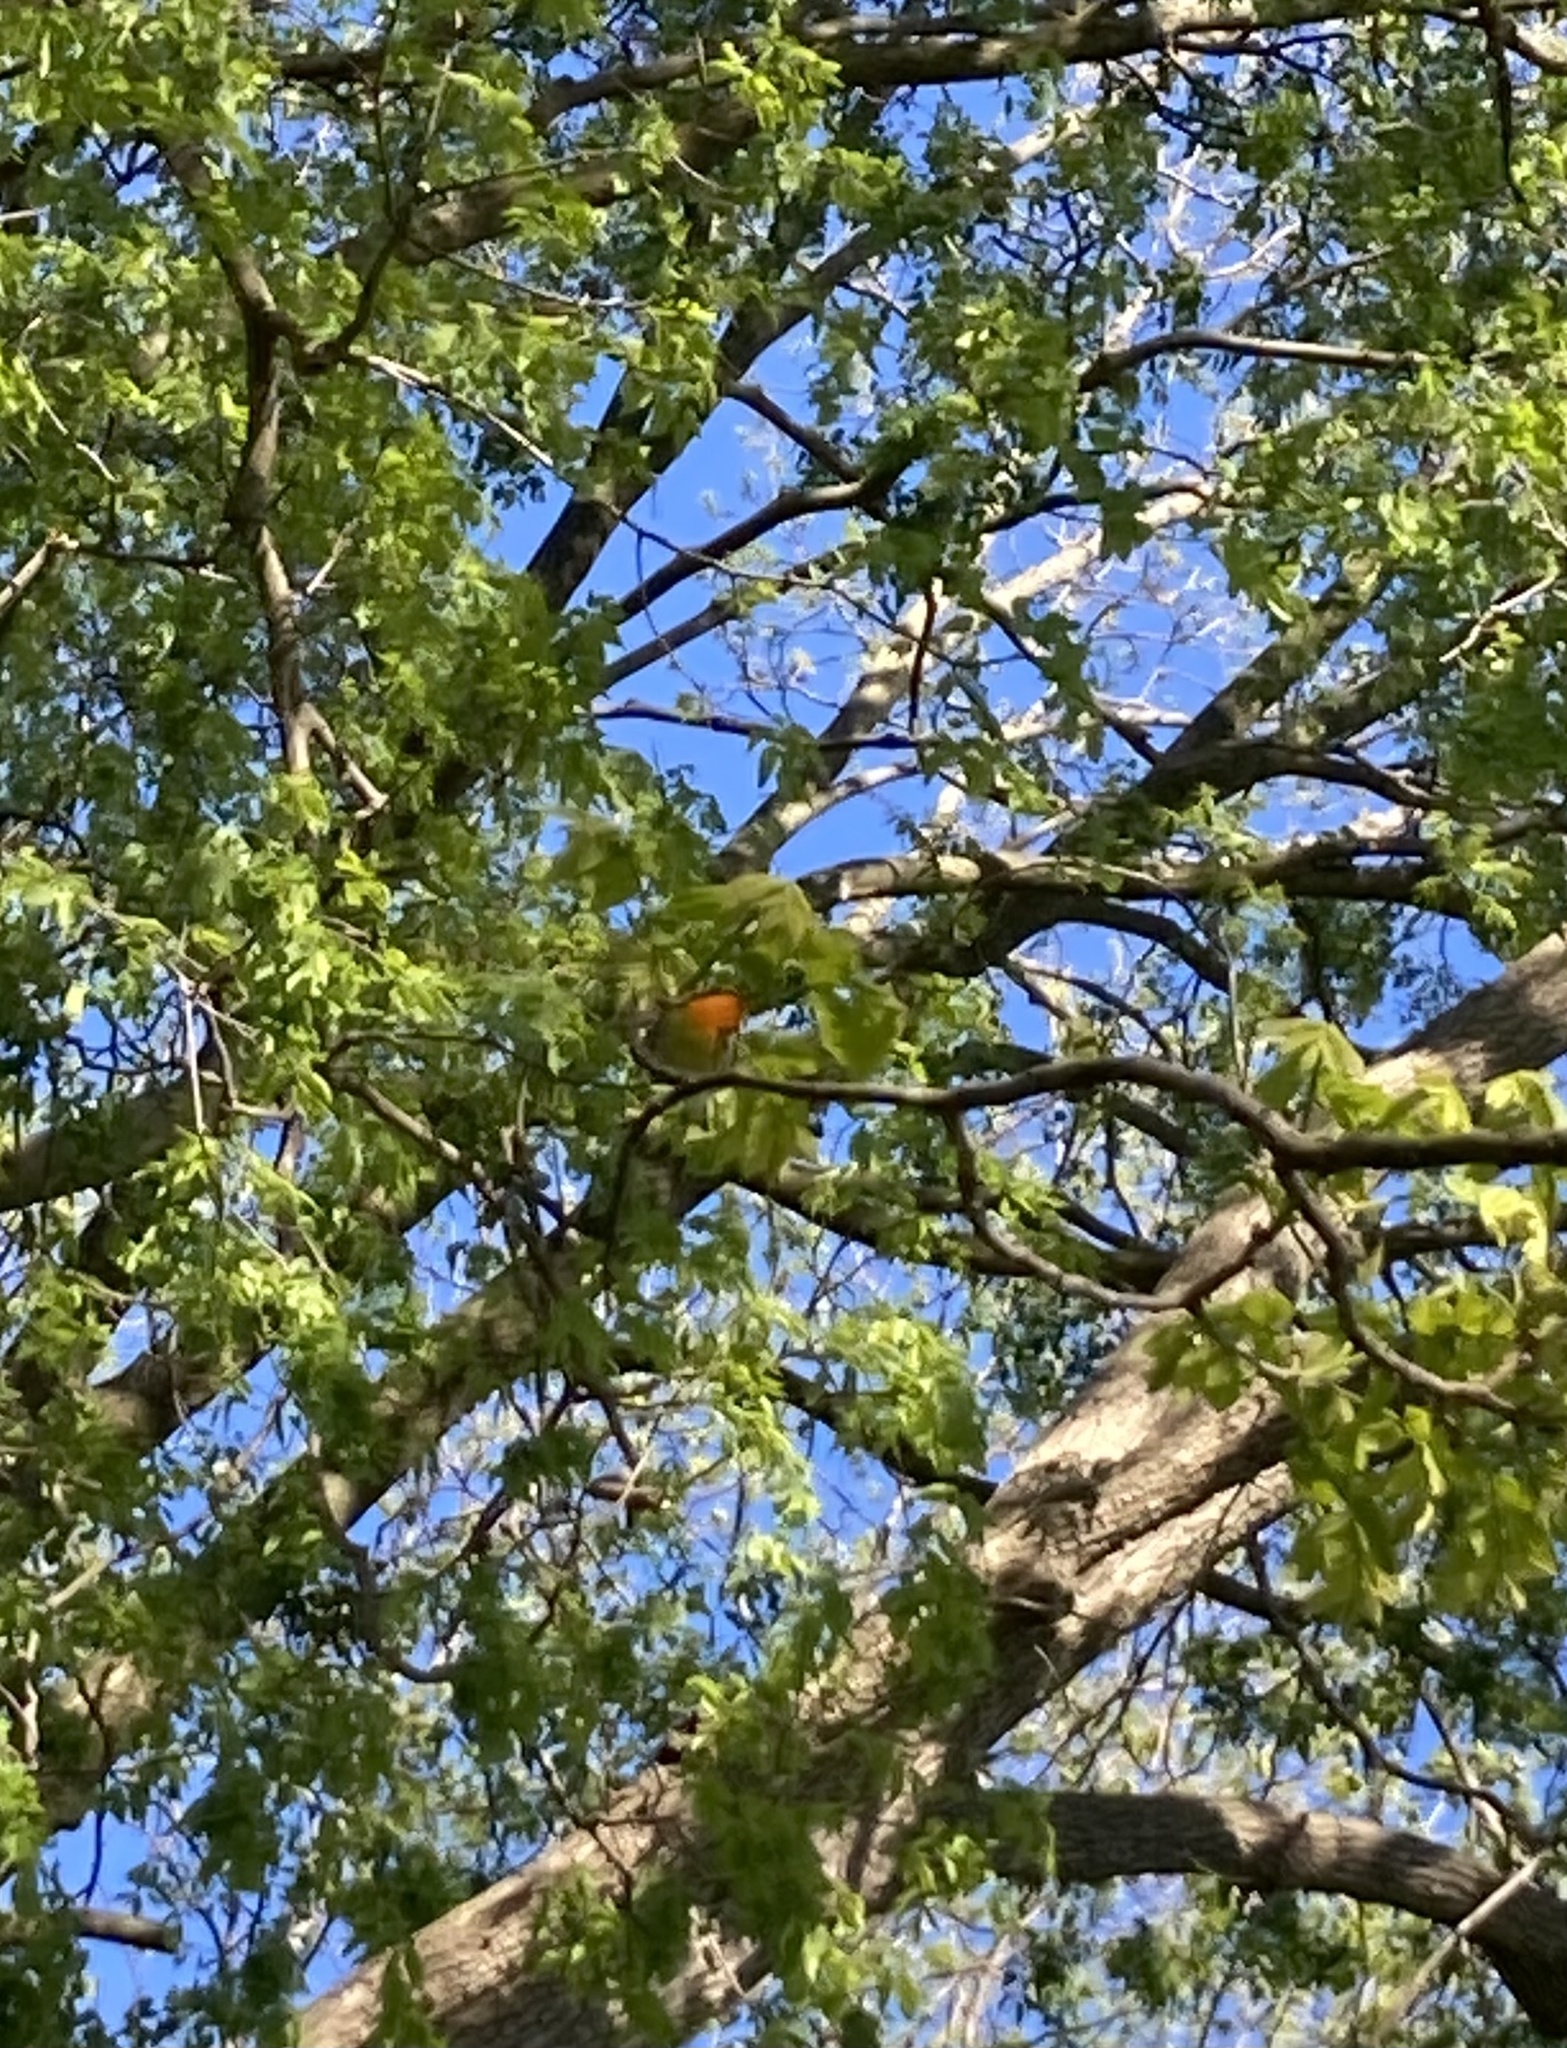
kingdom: Animalia
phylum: Chordata
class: Aves
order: Passeriformes
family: Parulidae
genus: Setophaga
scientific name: Setophaga fusca
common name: Blackburnian warbler
